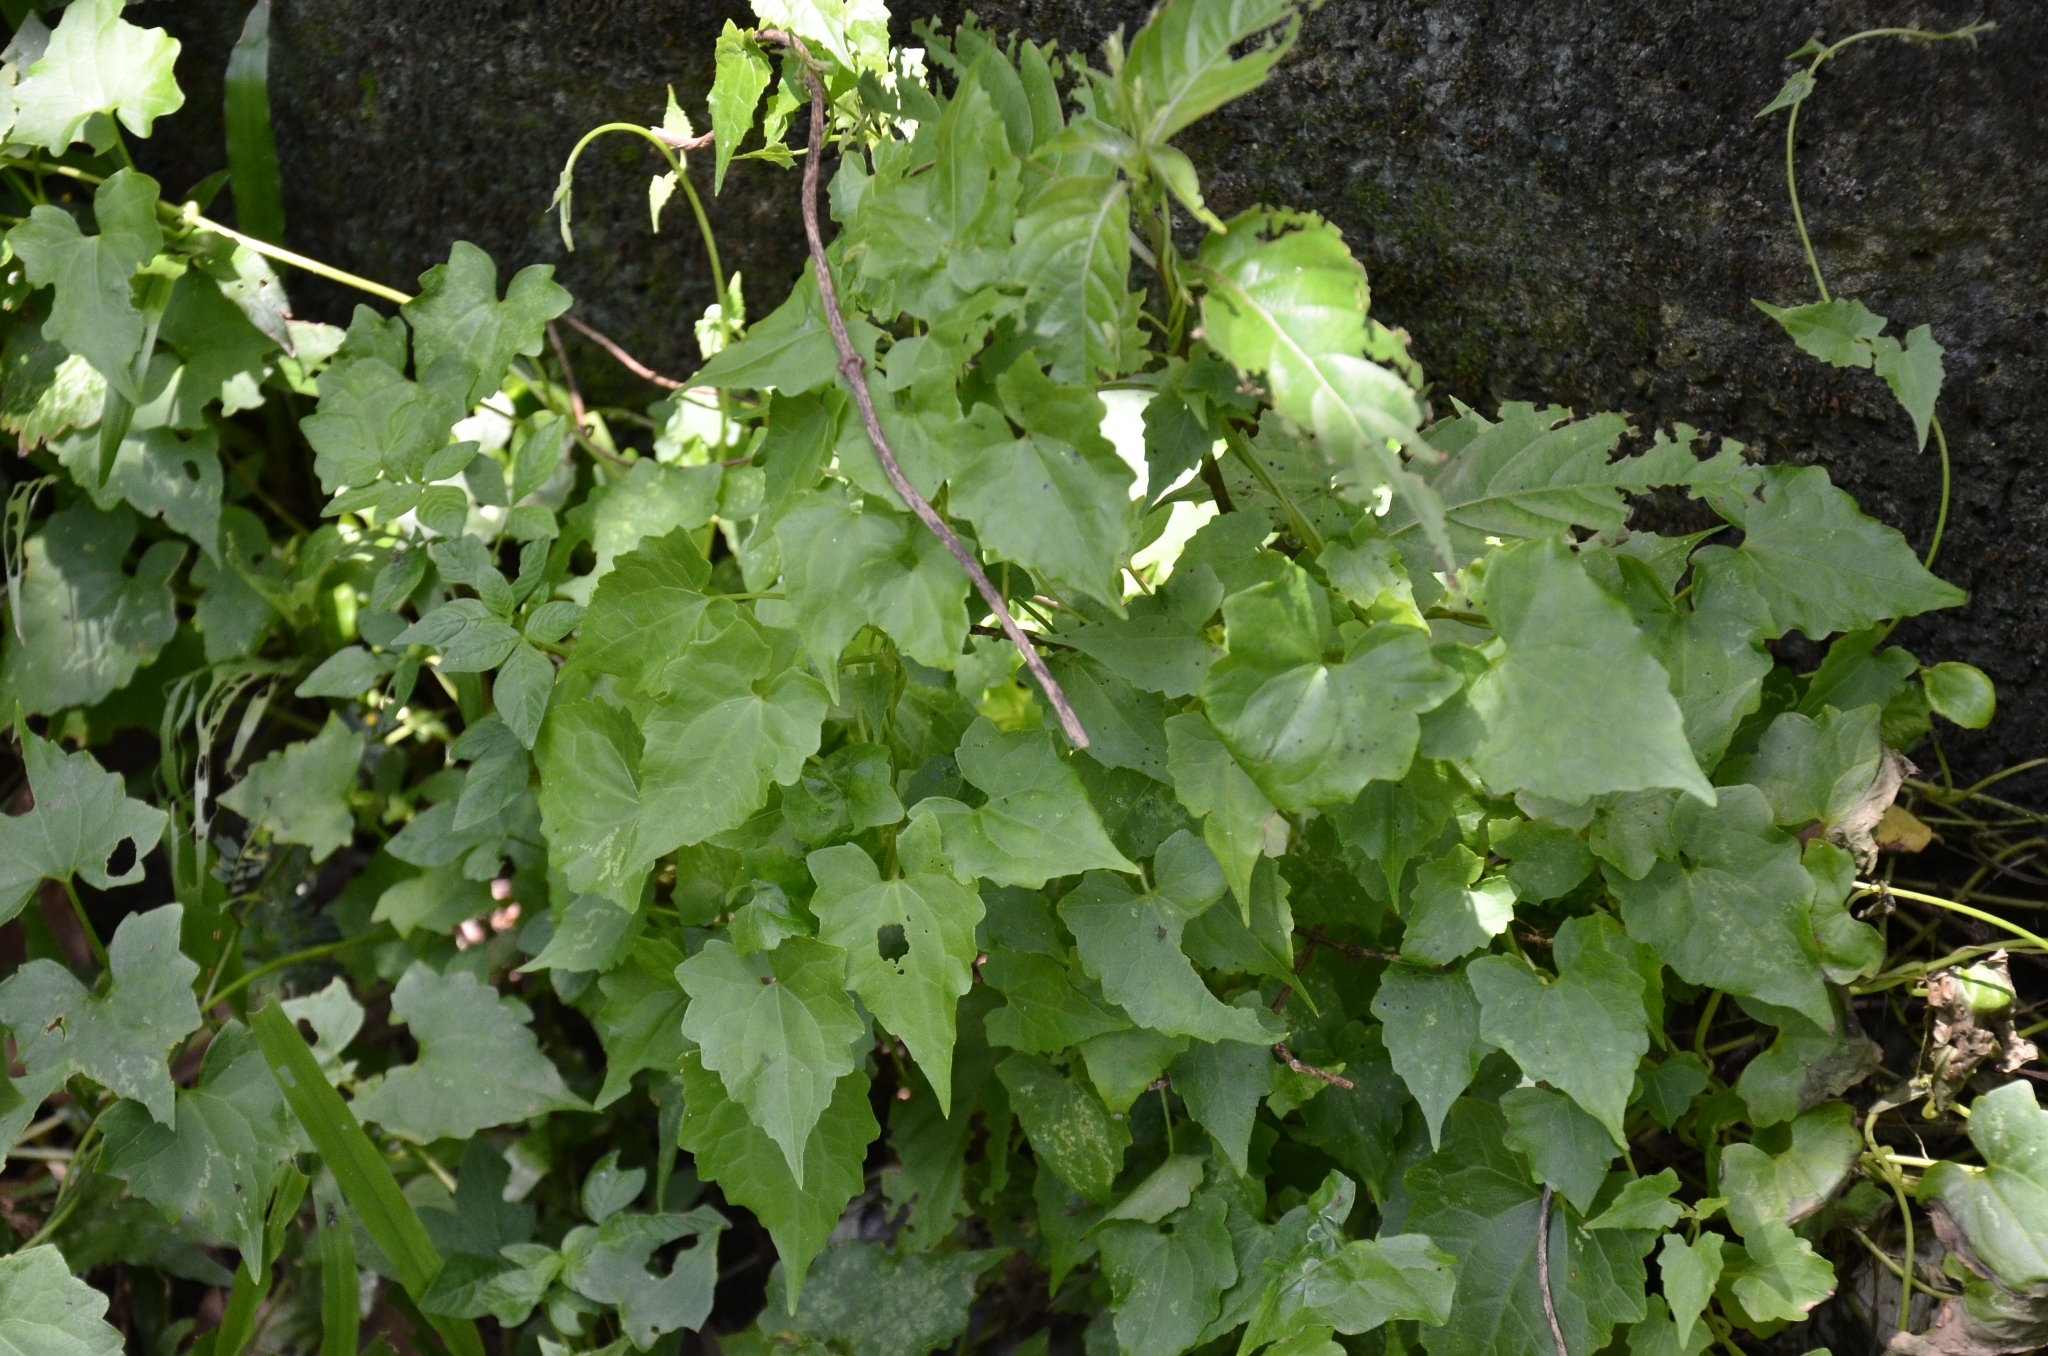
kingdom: Plantae
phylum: Tracheophyta
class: Magnoliopsida
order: Asterales
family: Asteraceae
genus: Mikania
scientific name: Mikania micrantha
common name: Mile-a-minute
